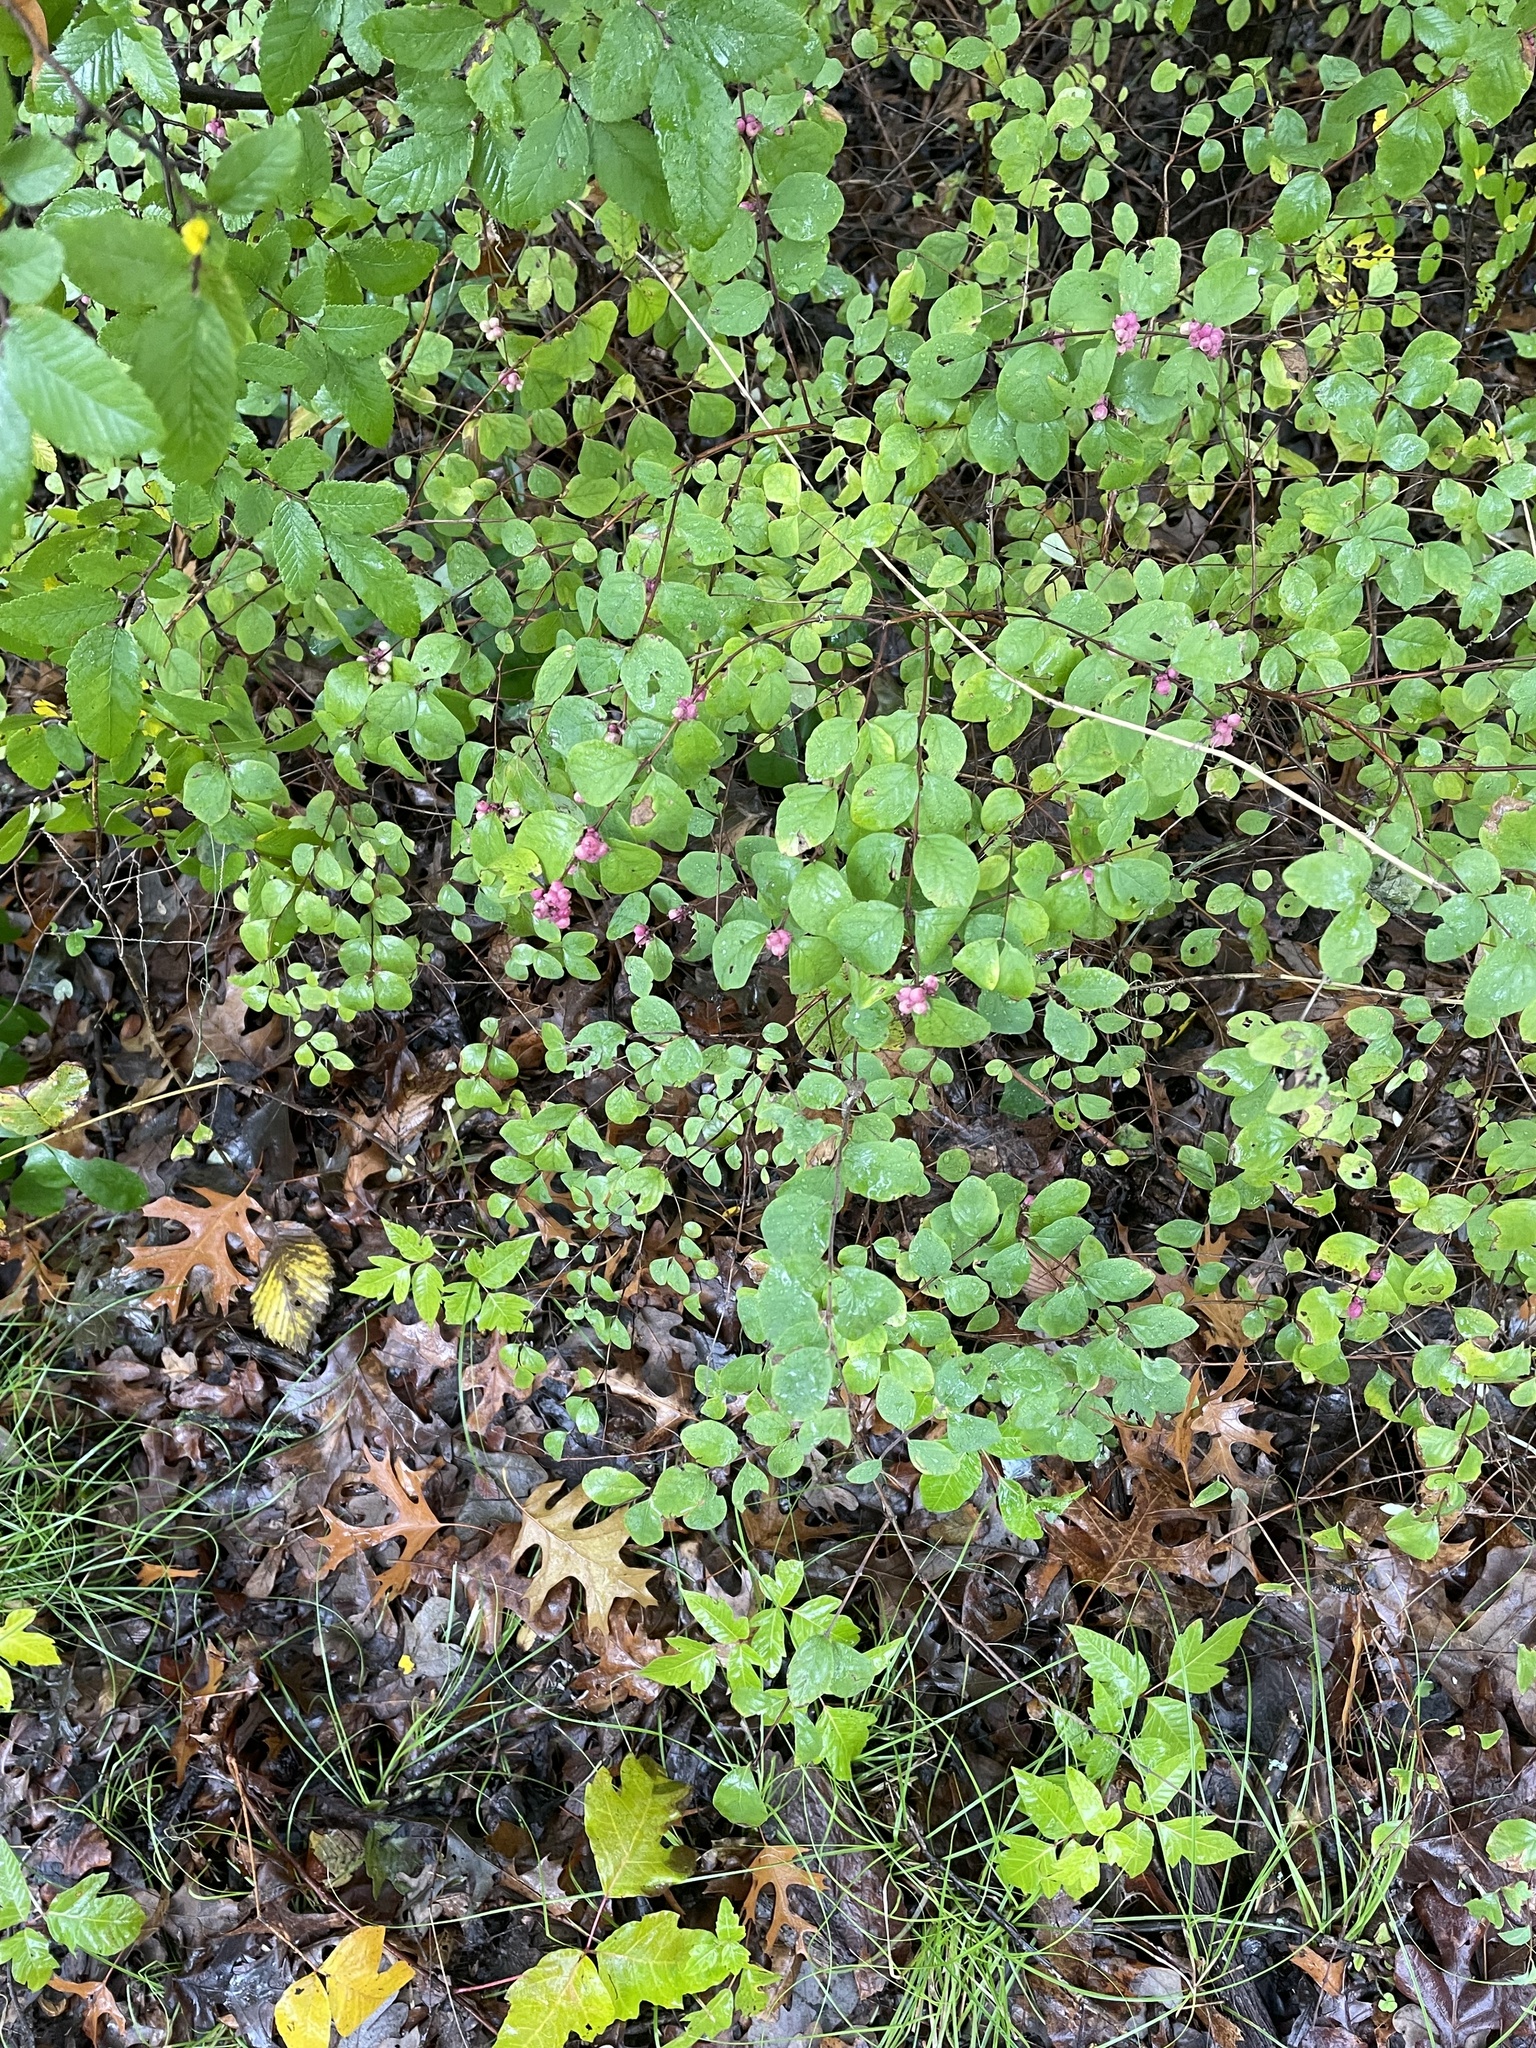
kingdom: Plantae
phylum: Tracheophyta
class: Magnoliopsida
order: Dipsacales
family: Caprifoliaceae
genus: Symphoricarpos
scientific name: Symphoricarpos orbiculatus
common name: Coralberry
